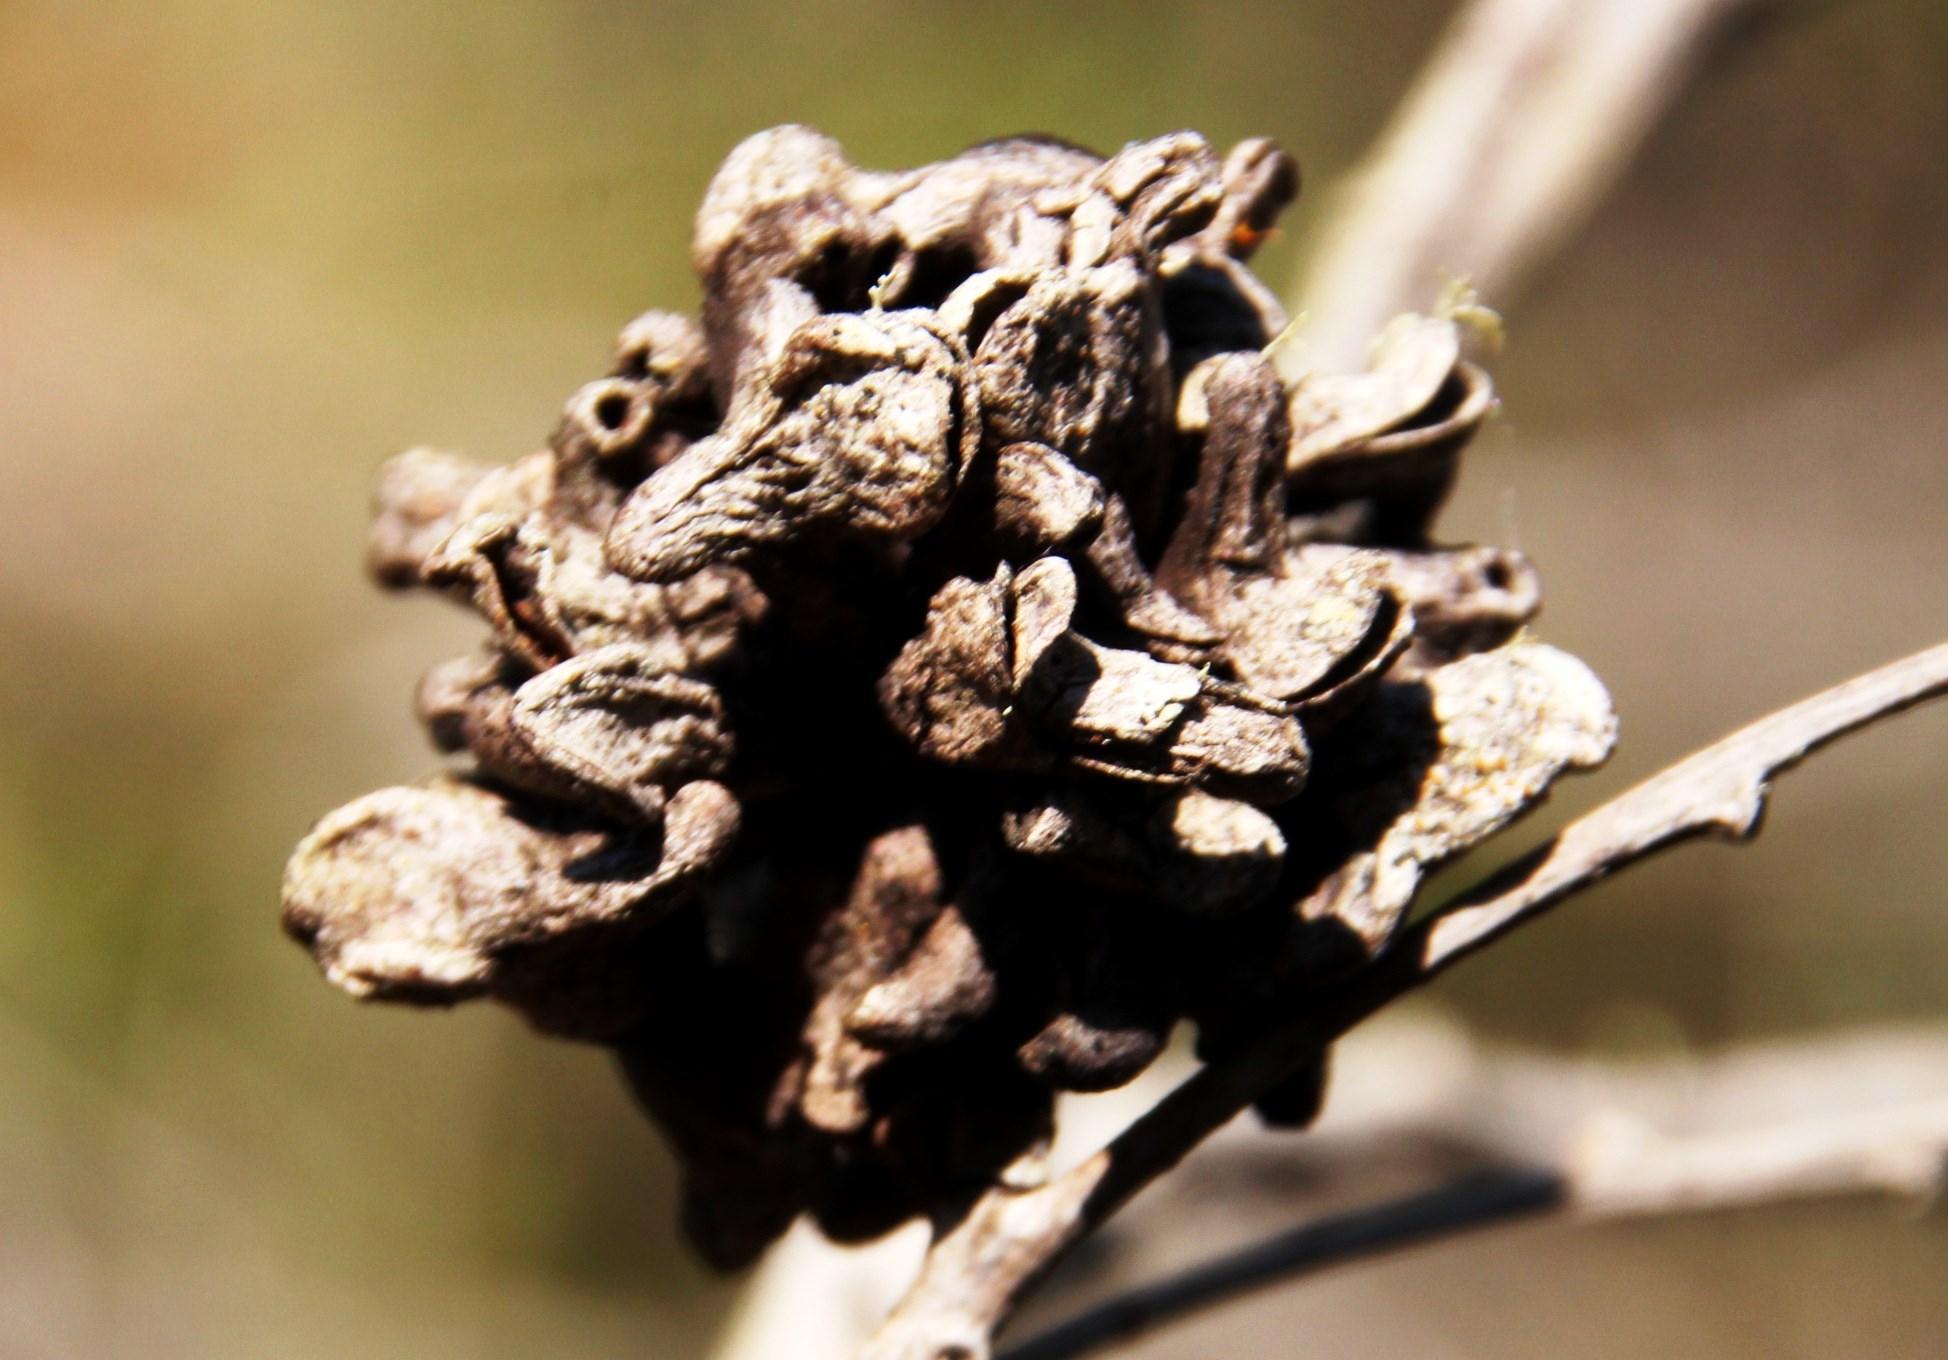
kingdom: Animalia
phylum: Arthropoda
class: Insecta
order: Diptera
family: Cecidomyiidae
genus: Dasineura
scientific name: Dasineura dielsi
